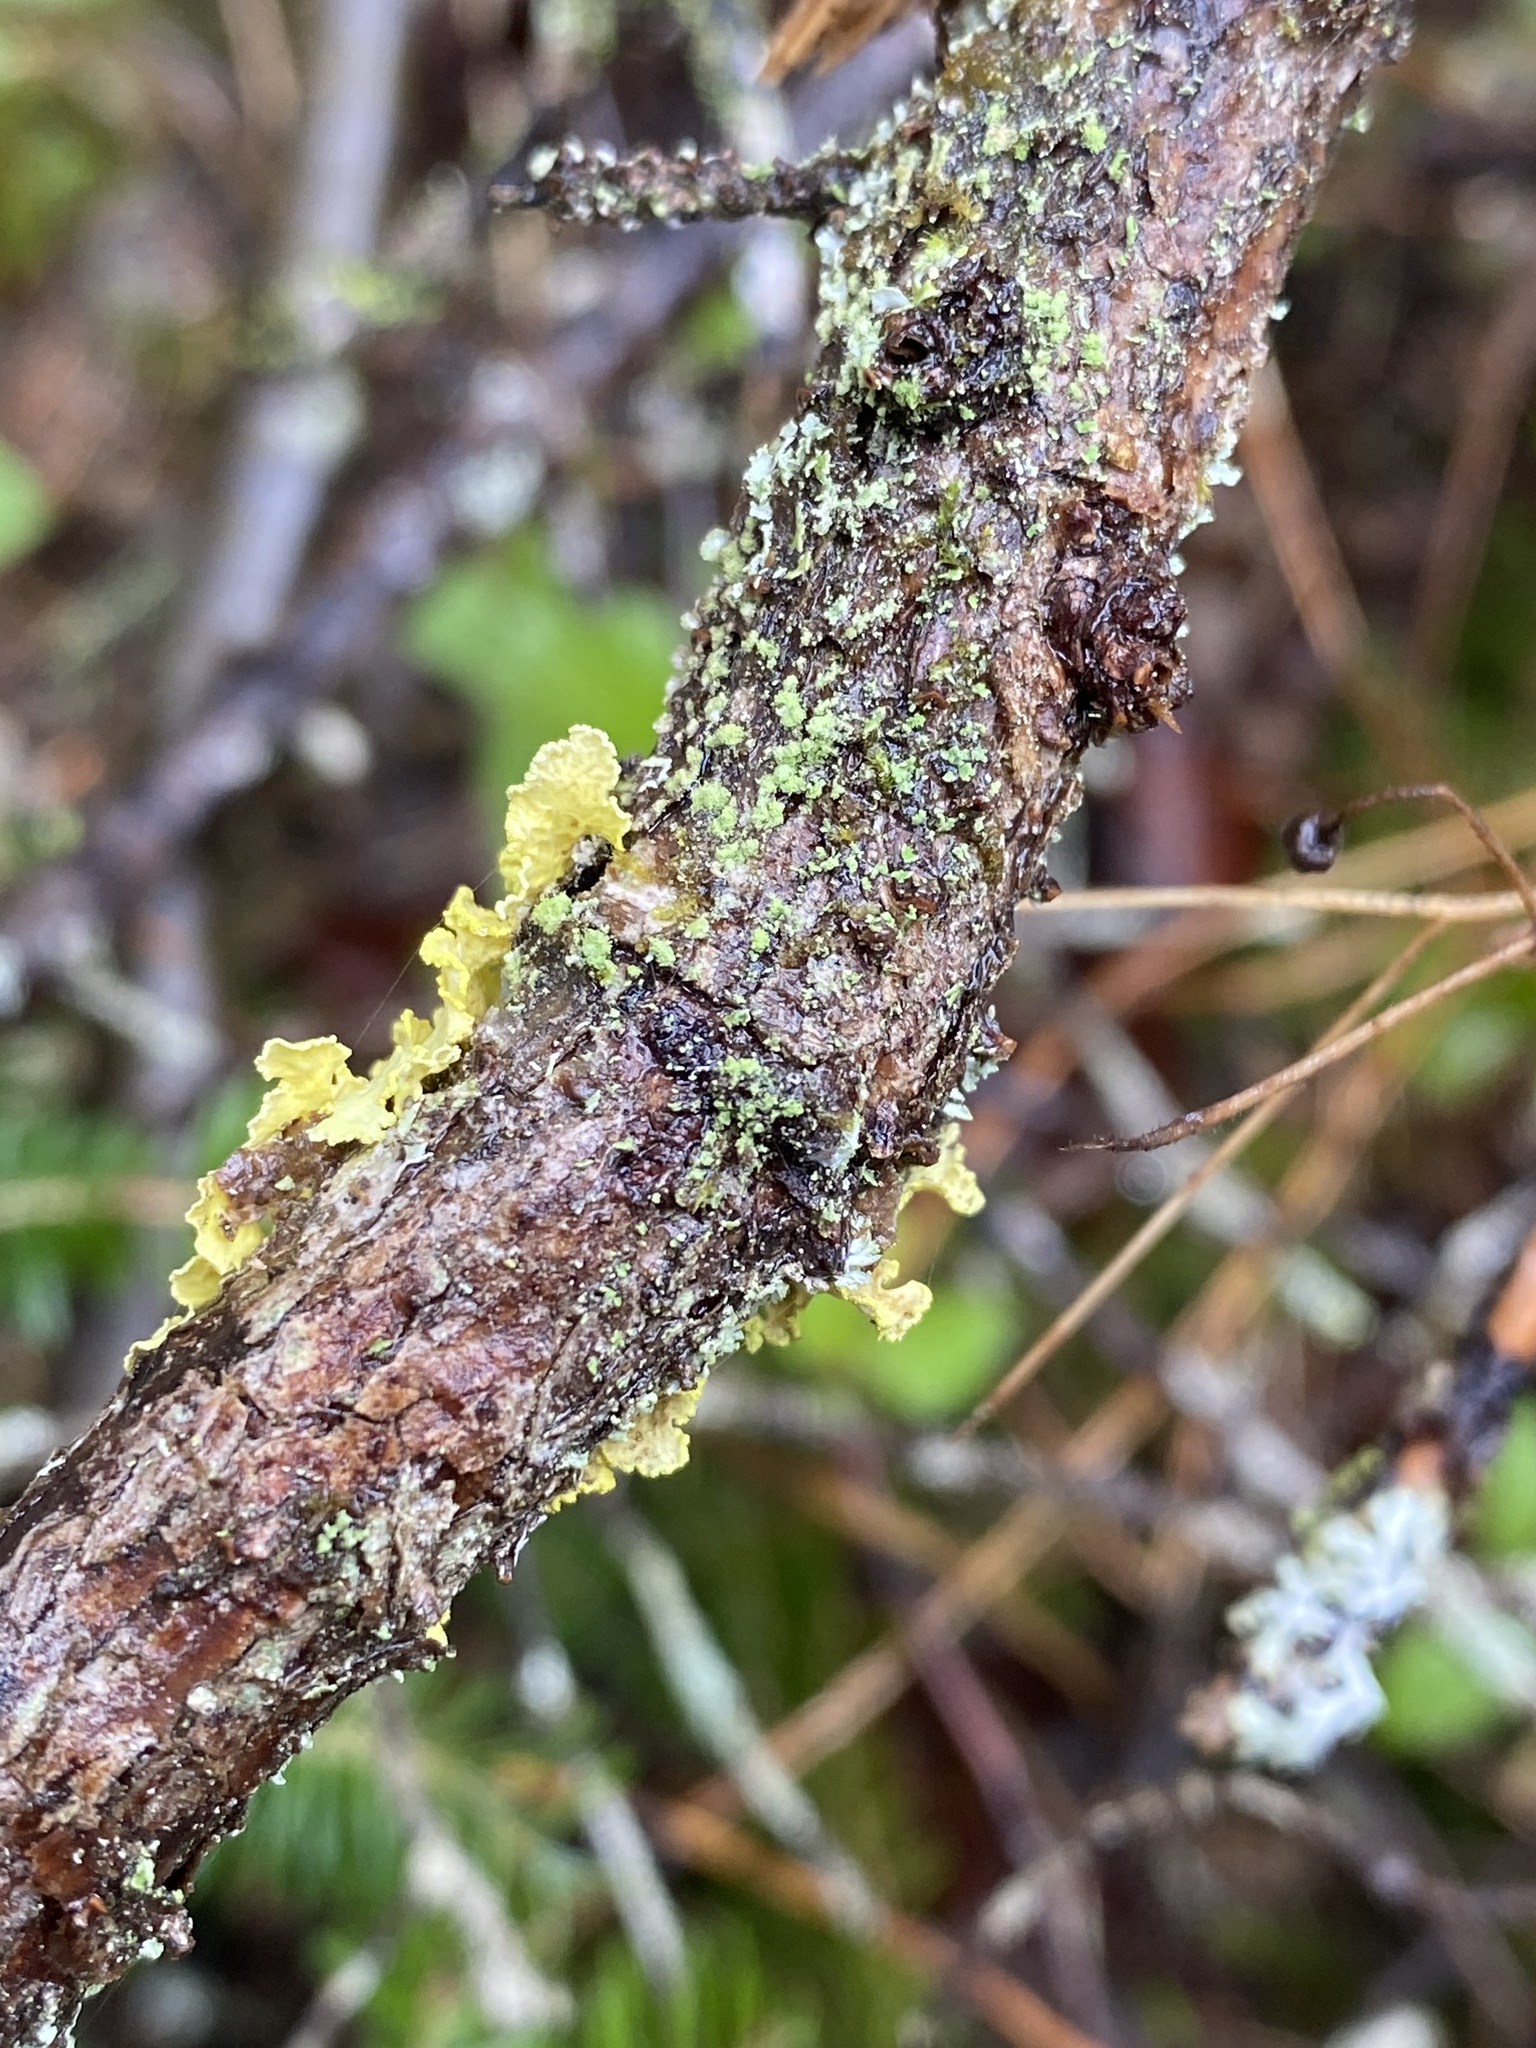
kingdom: Fungi
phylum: Ascomycota
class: Lecanoromycetes
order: Lecanorales
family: Parmeliaceae
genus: Vulpicida
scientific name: Vulpicida pinastri
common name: Powdered sunshine lichen
